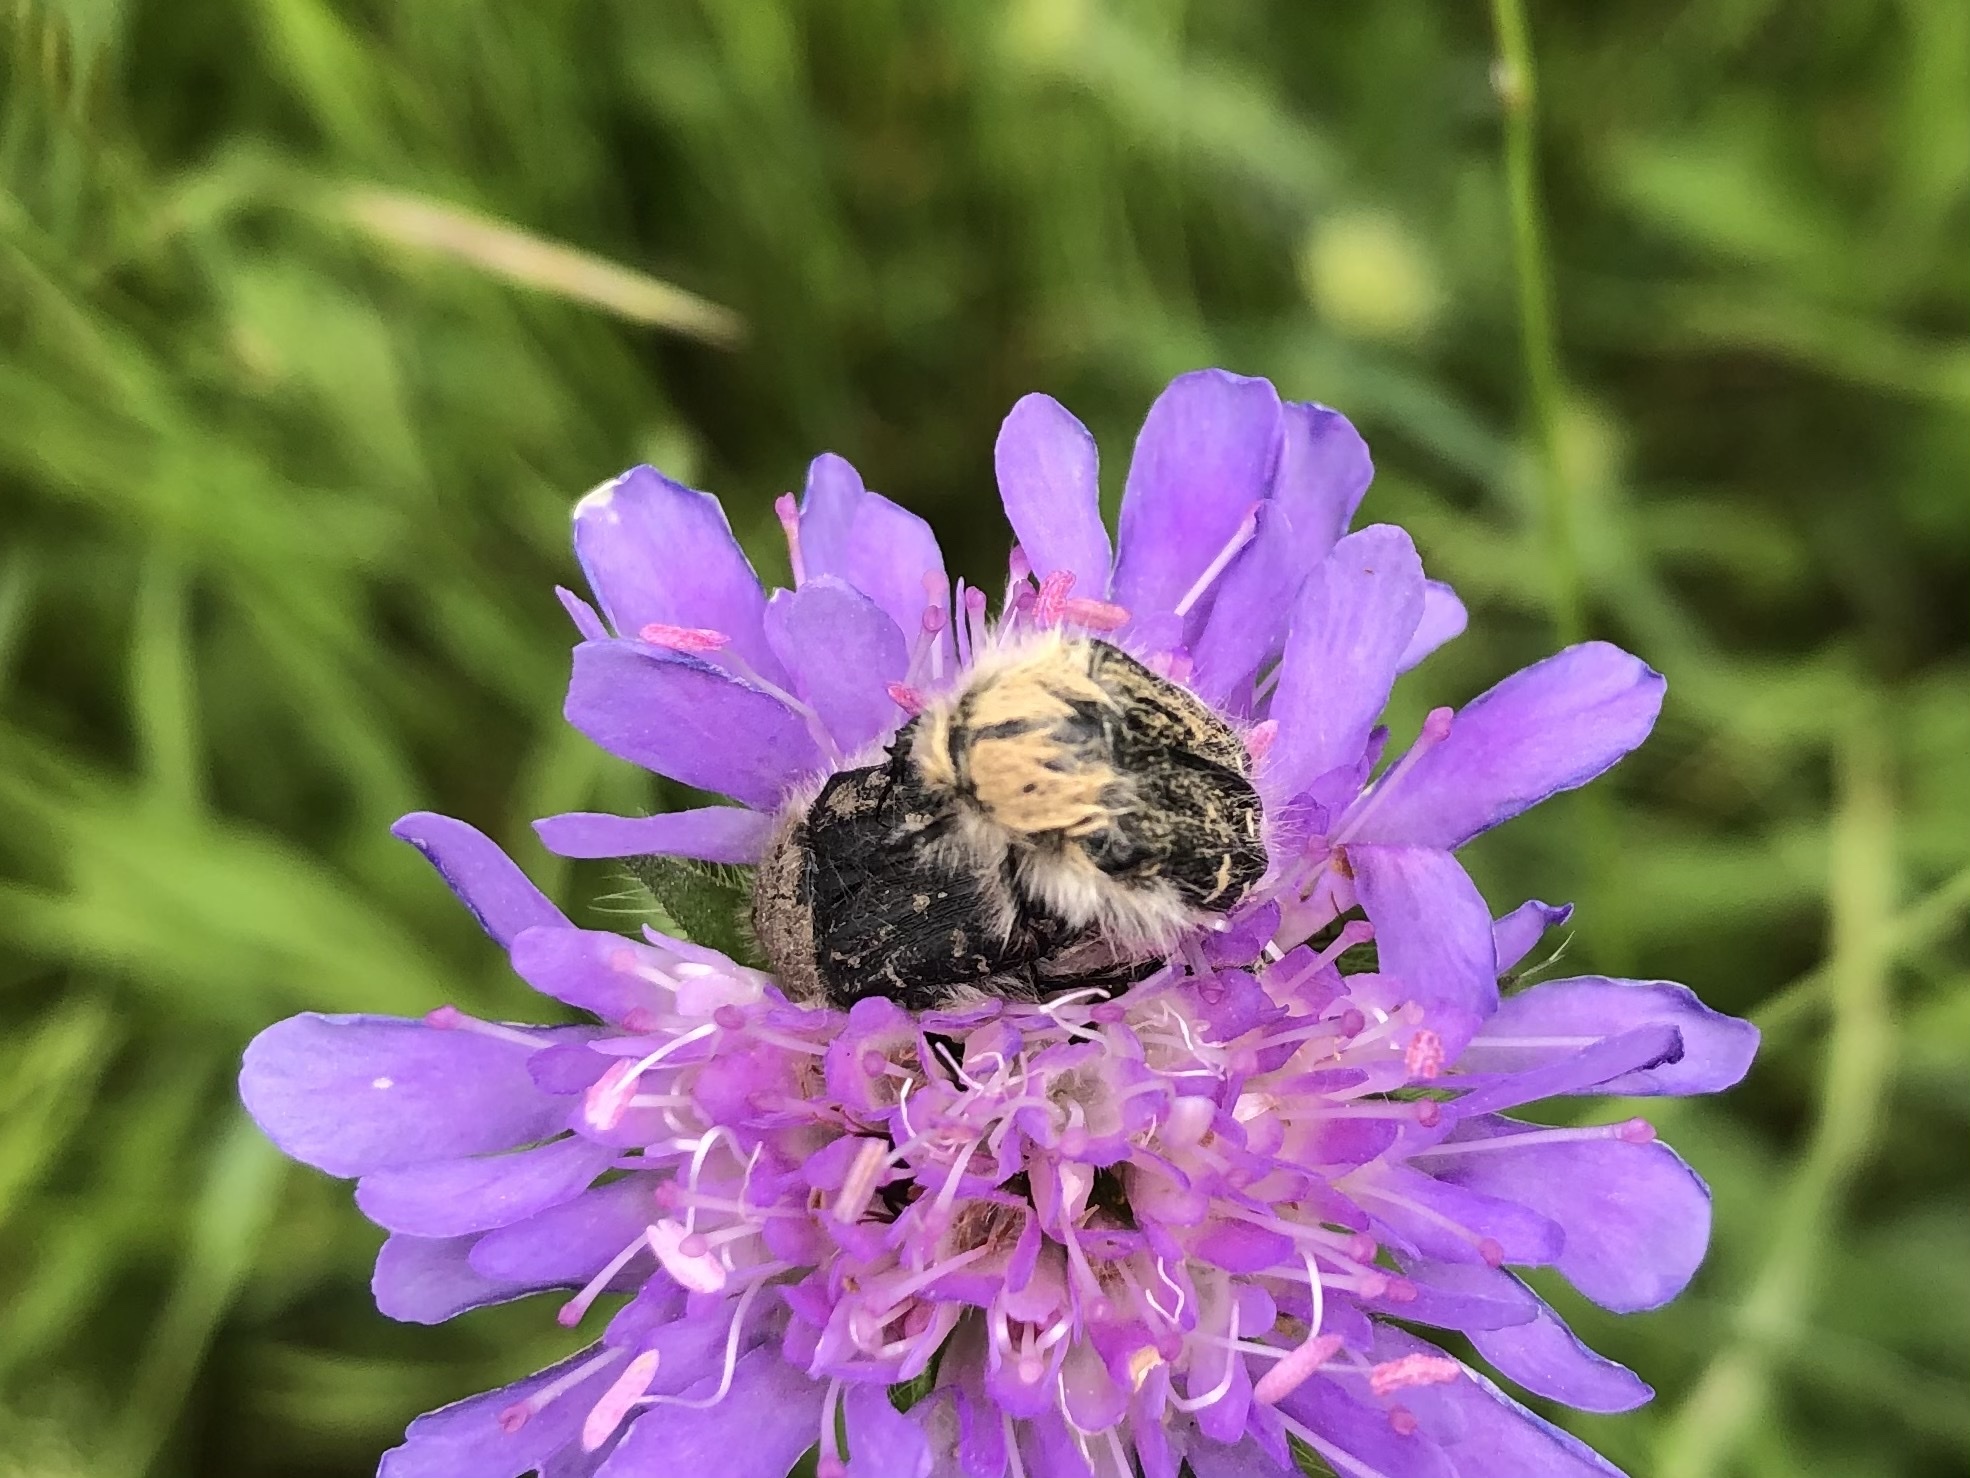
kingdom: Animalia
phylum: Arthropoda
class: Insecta
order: Coleoptera
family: Scarabaeidae
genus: Tropinota
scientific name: Tropinota hirta
